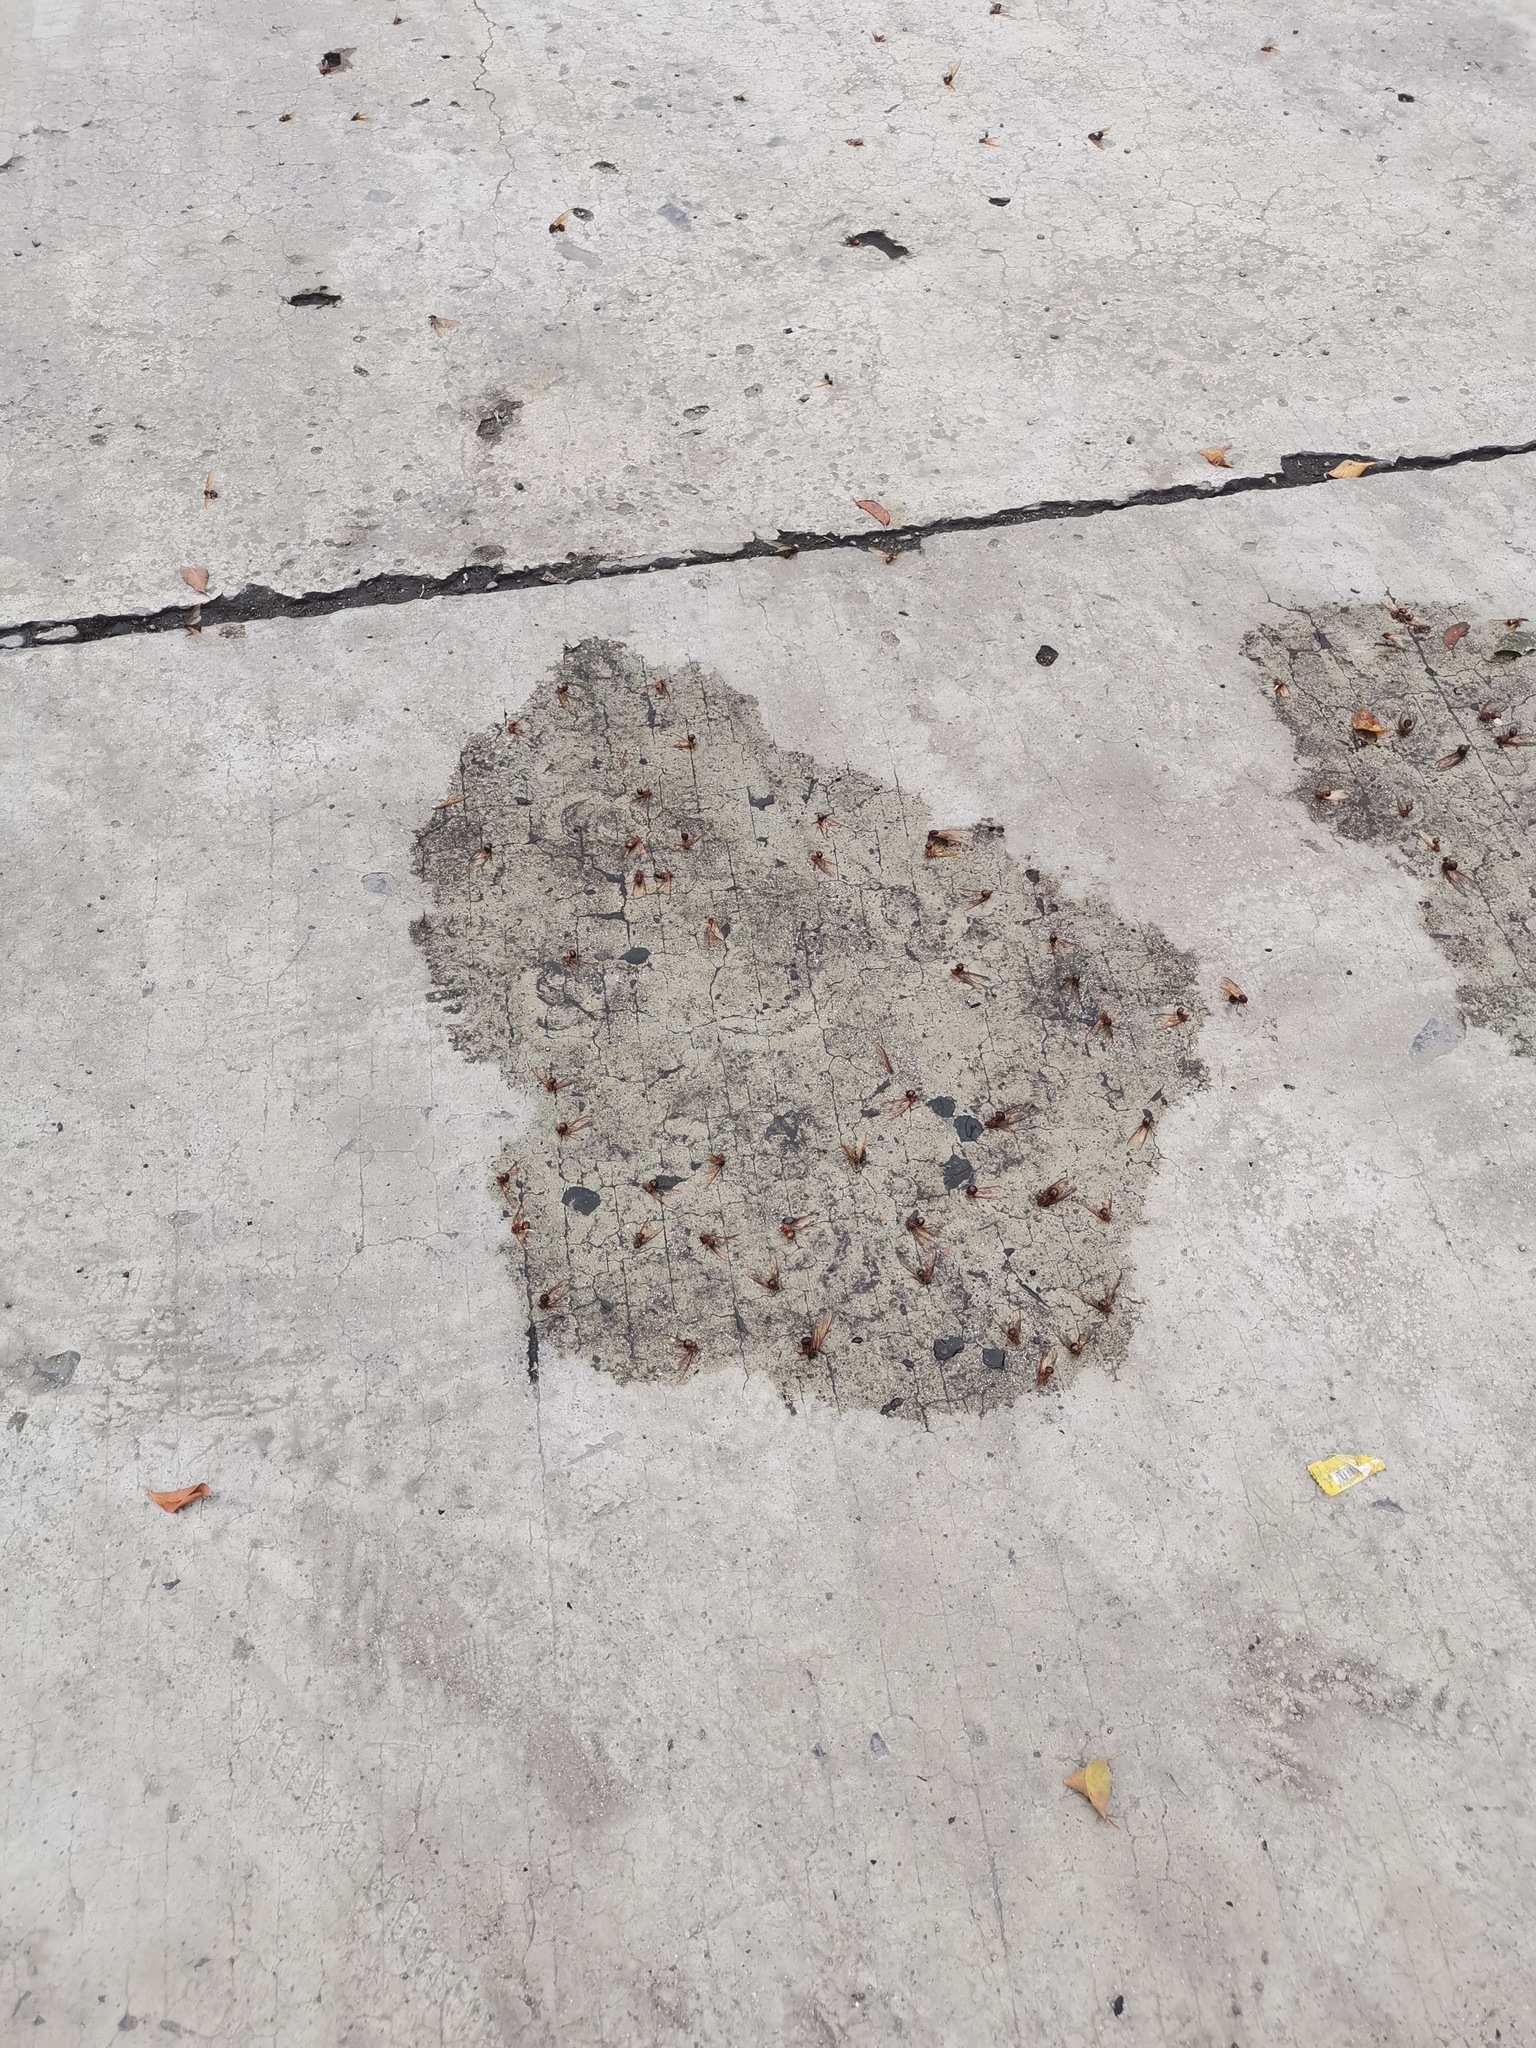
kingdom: Animalia
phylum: Arthropoda
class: Insecta
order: Hymenoptera
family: Formicidae
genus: Atta
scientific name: Atta mexicana
